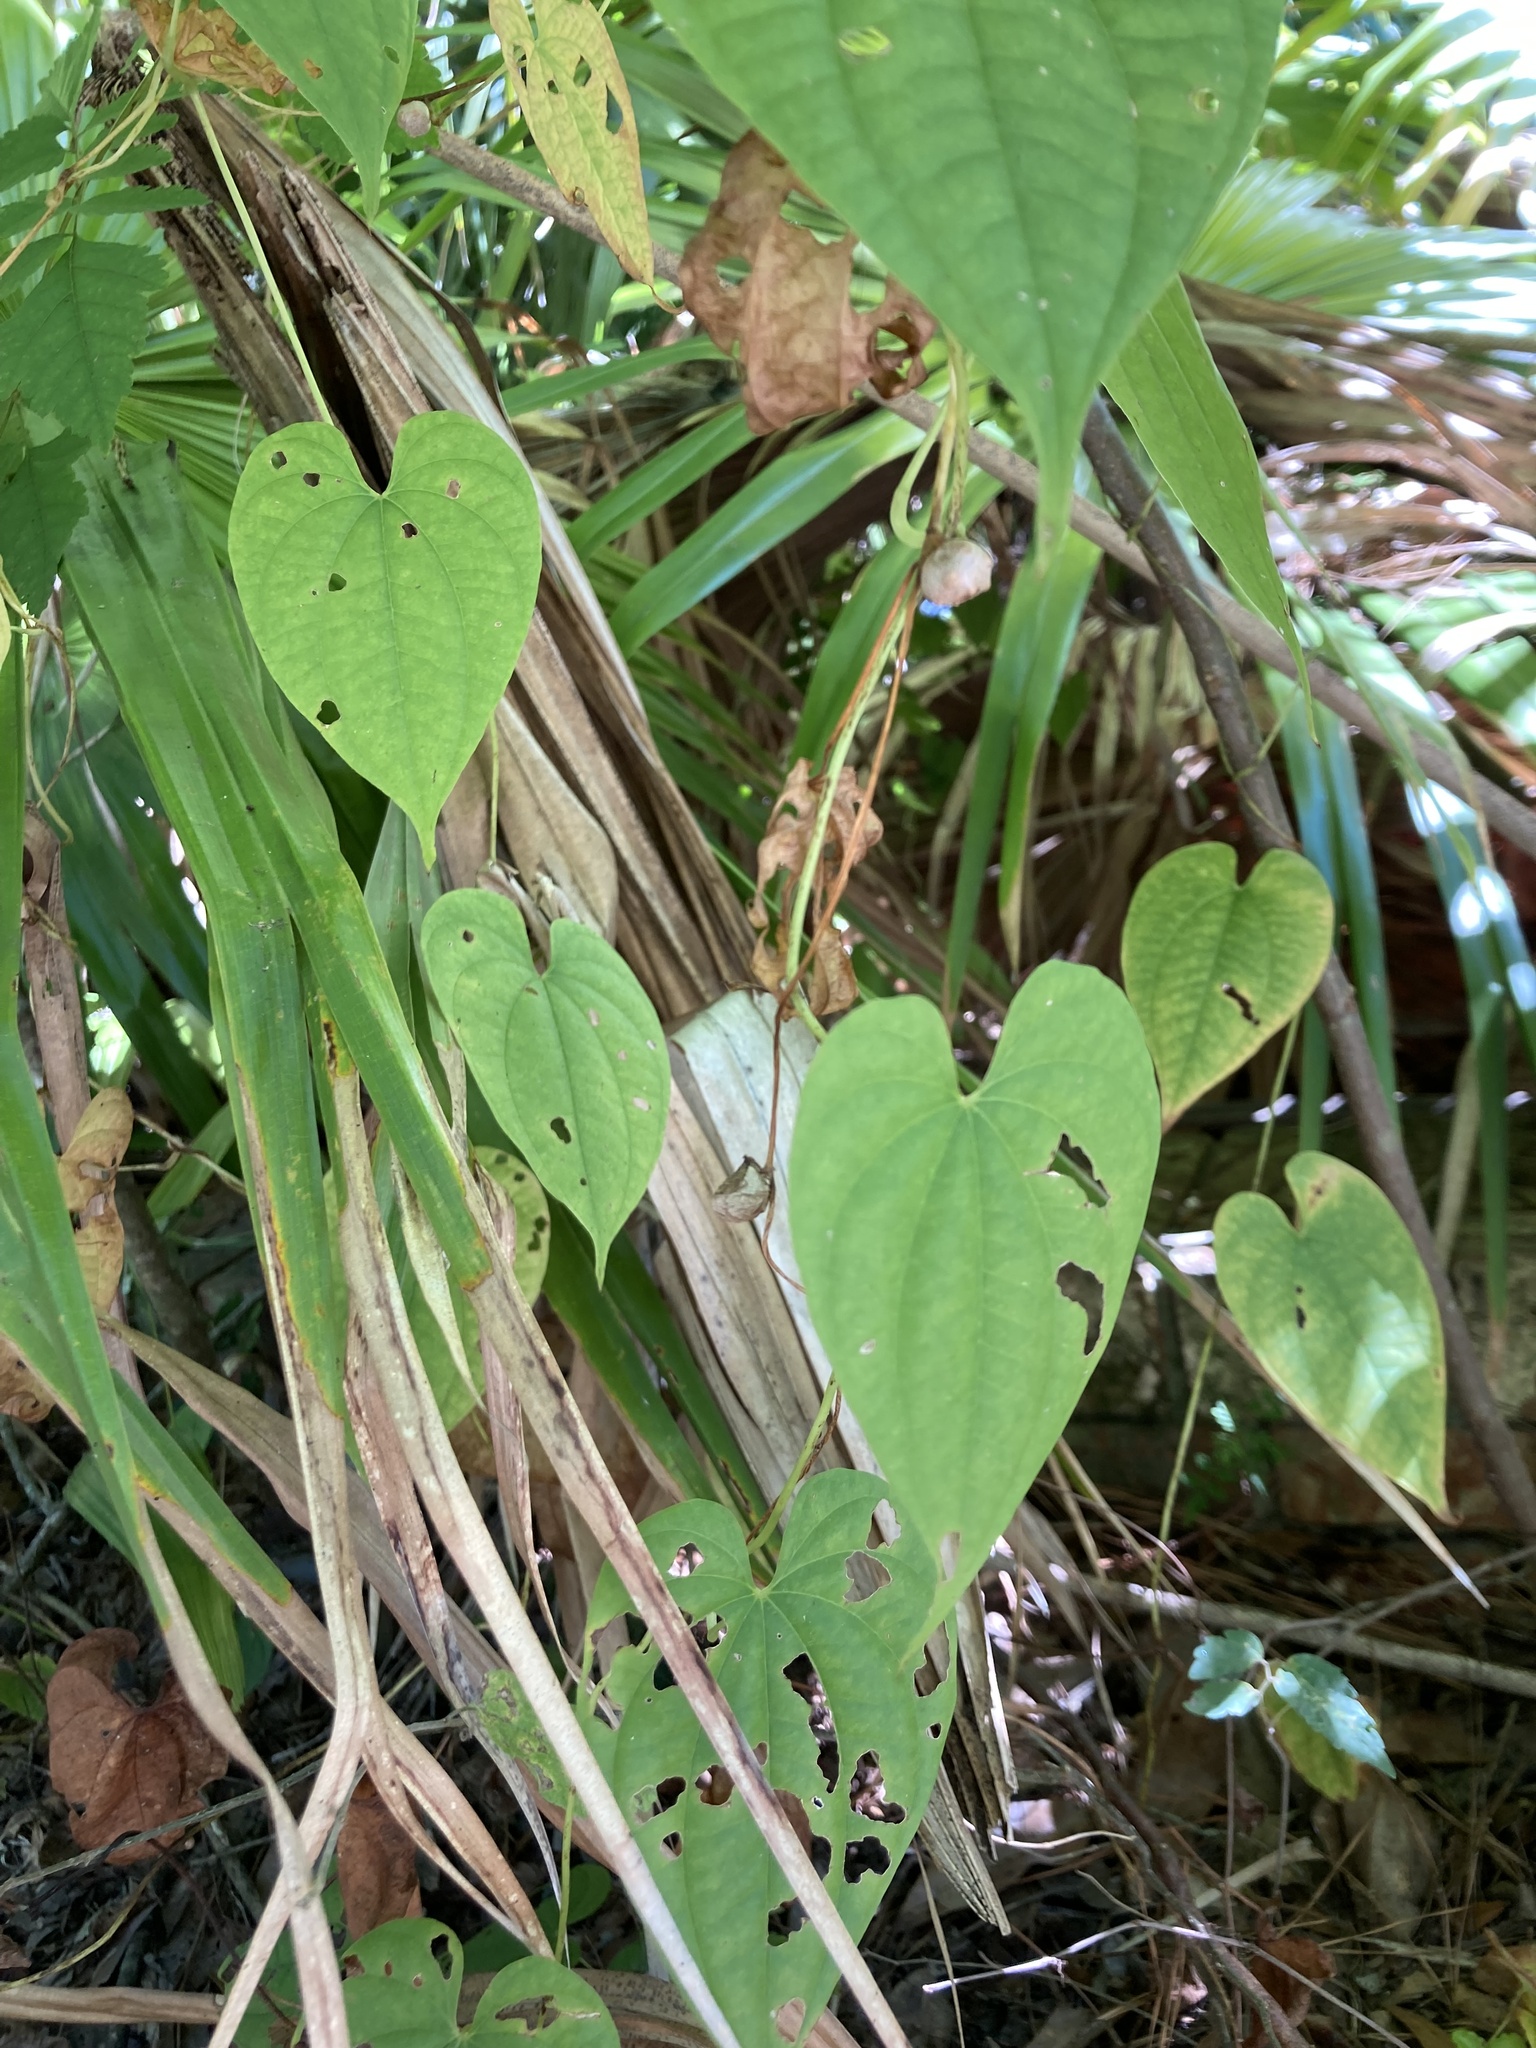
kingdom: Plantae
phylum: Tracheophyta
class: Liliopsida
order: Dioscoreales
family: Dioscoreaceae
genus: Dioscorea
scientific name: Dioscorea bulbifera
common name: Air yam
